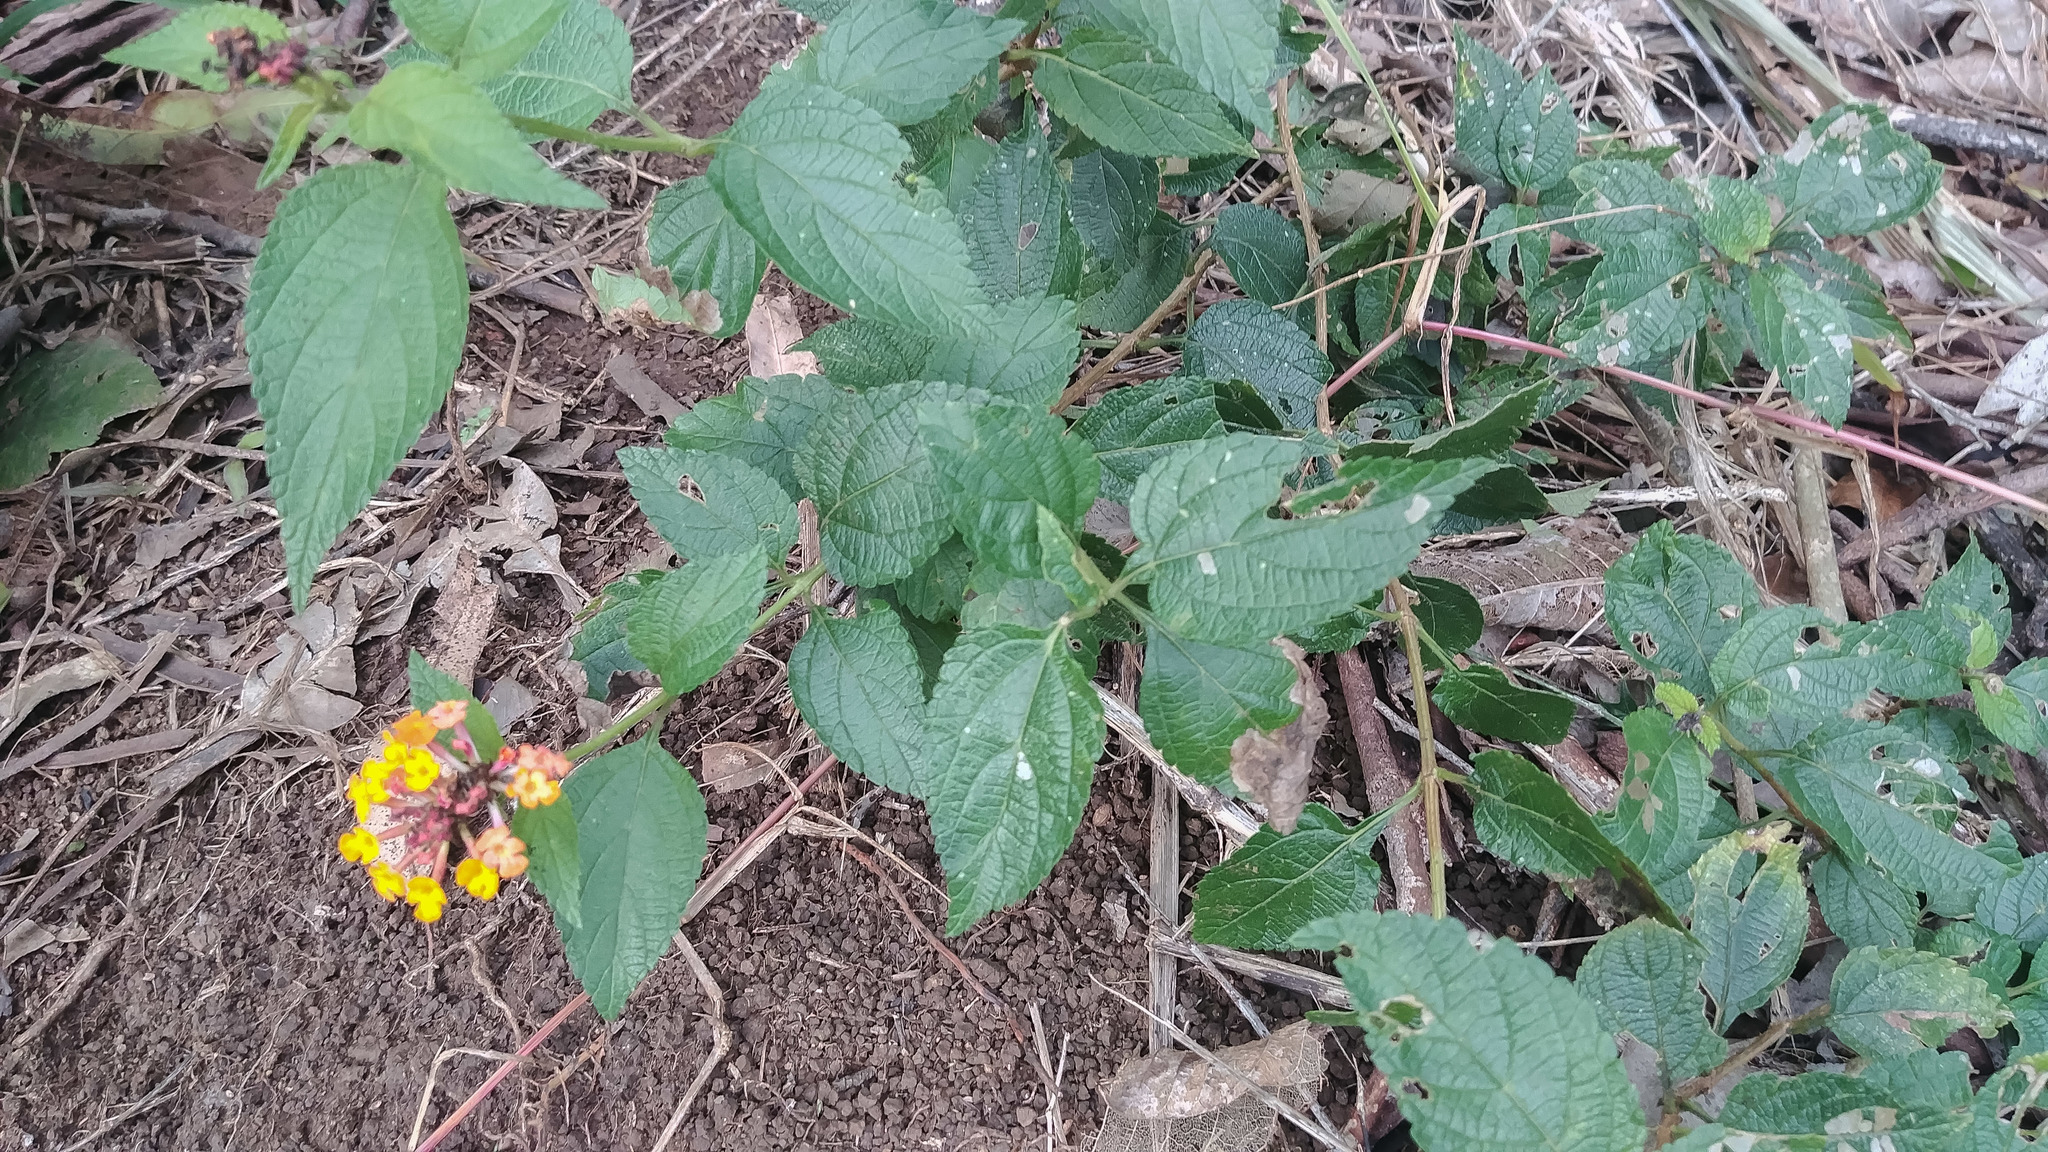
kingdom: Plantae
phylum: Tracheophyta
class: Magnoliopsida
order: Lamiales
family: Verbenaceae
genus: Lantana
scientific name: Lantana camara
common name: Lantana
